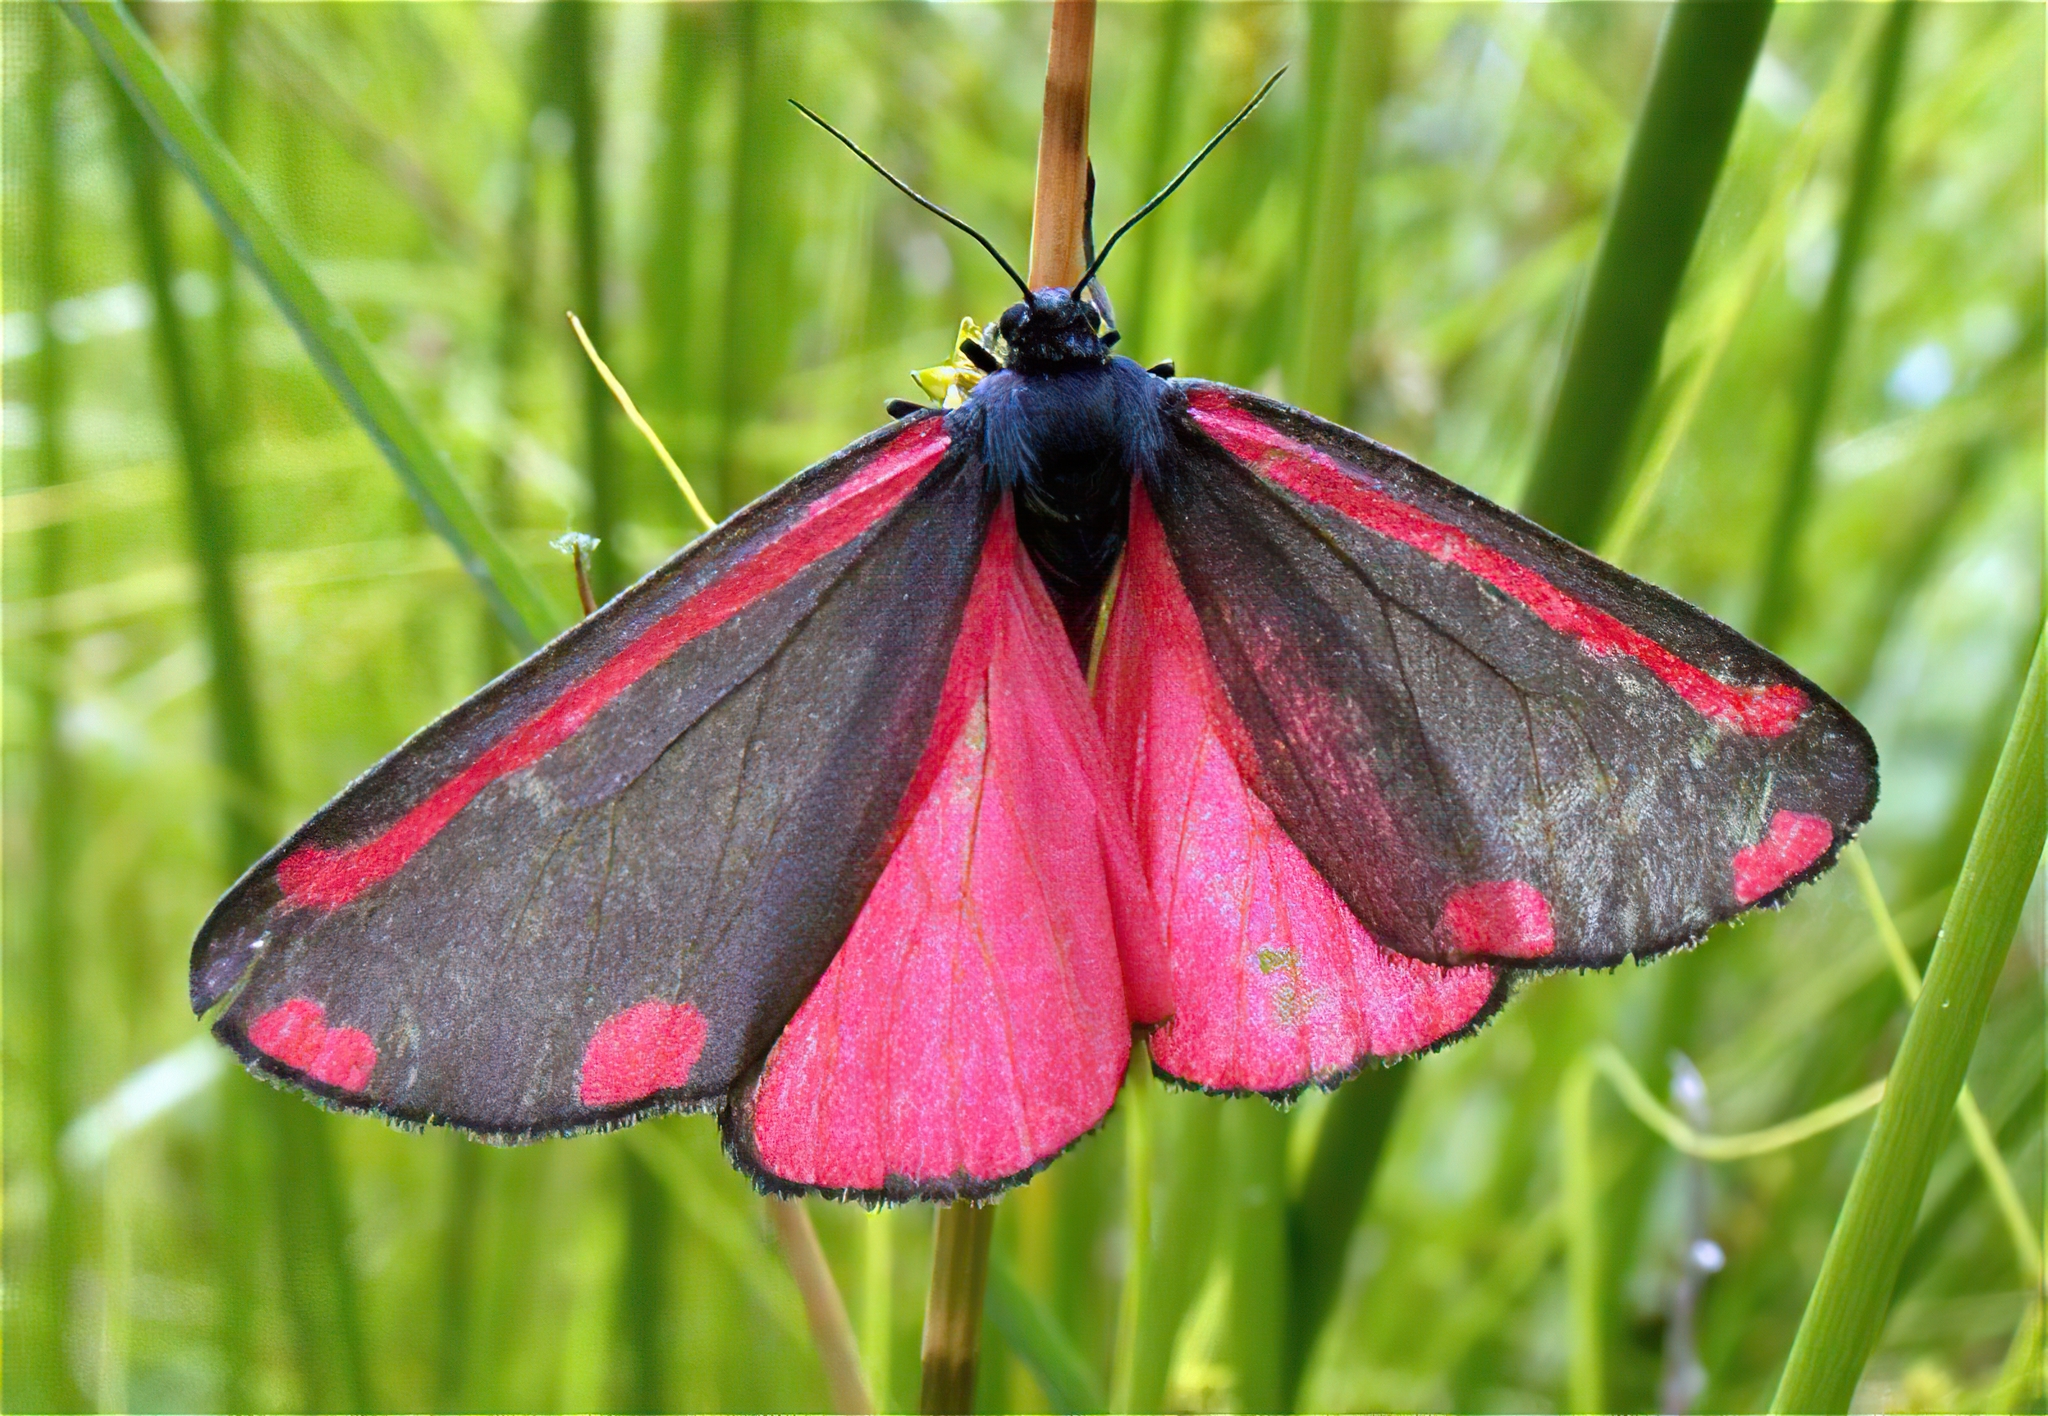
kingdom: Animalia
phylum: Arthropoda
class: Insecta
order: Lepidoptera
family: Erebidae
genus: Tyria
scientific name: Tyria jacobaeae
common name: Cinnabar
